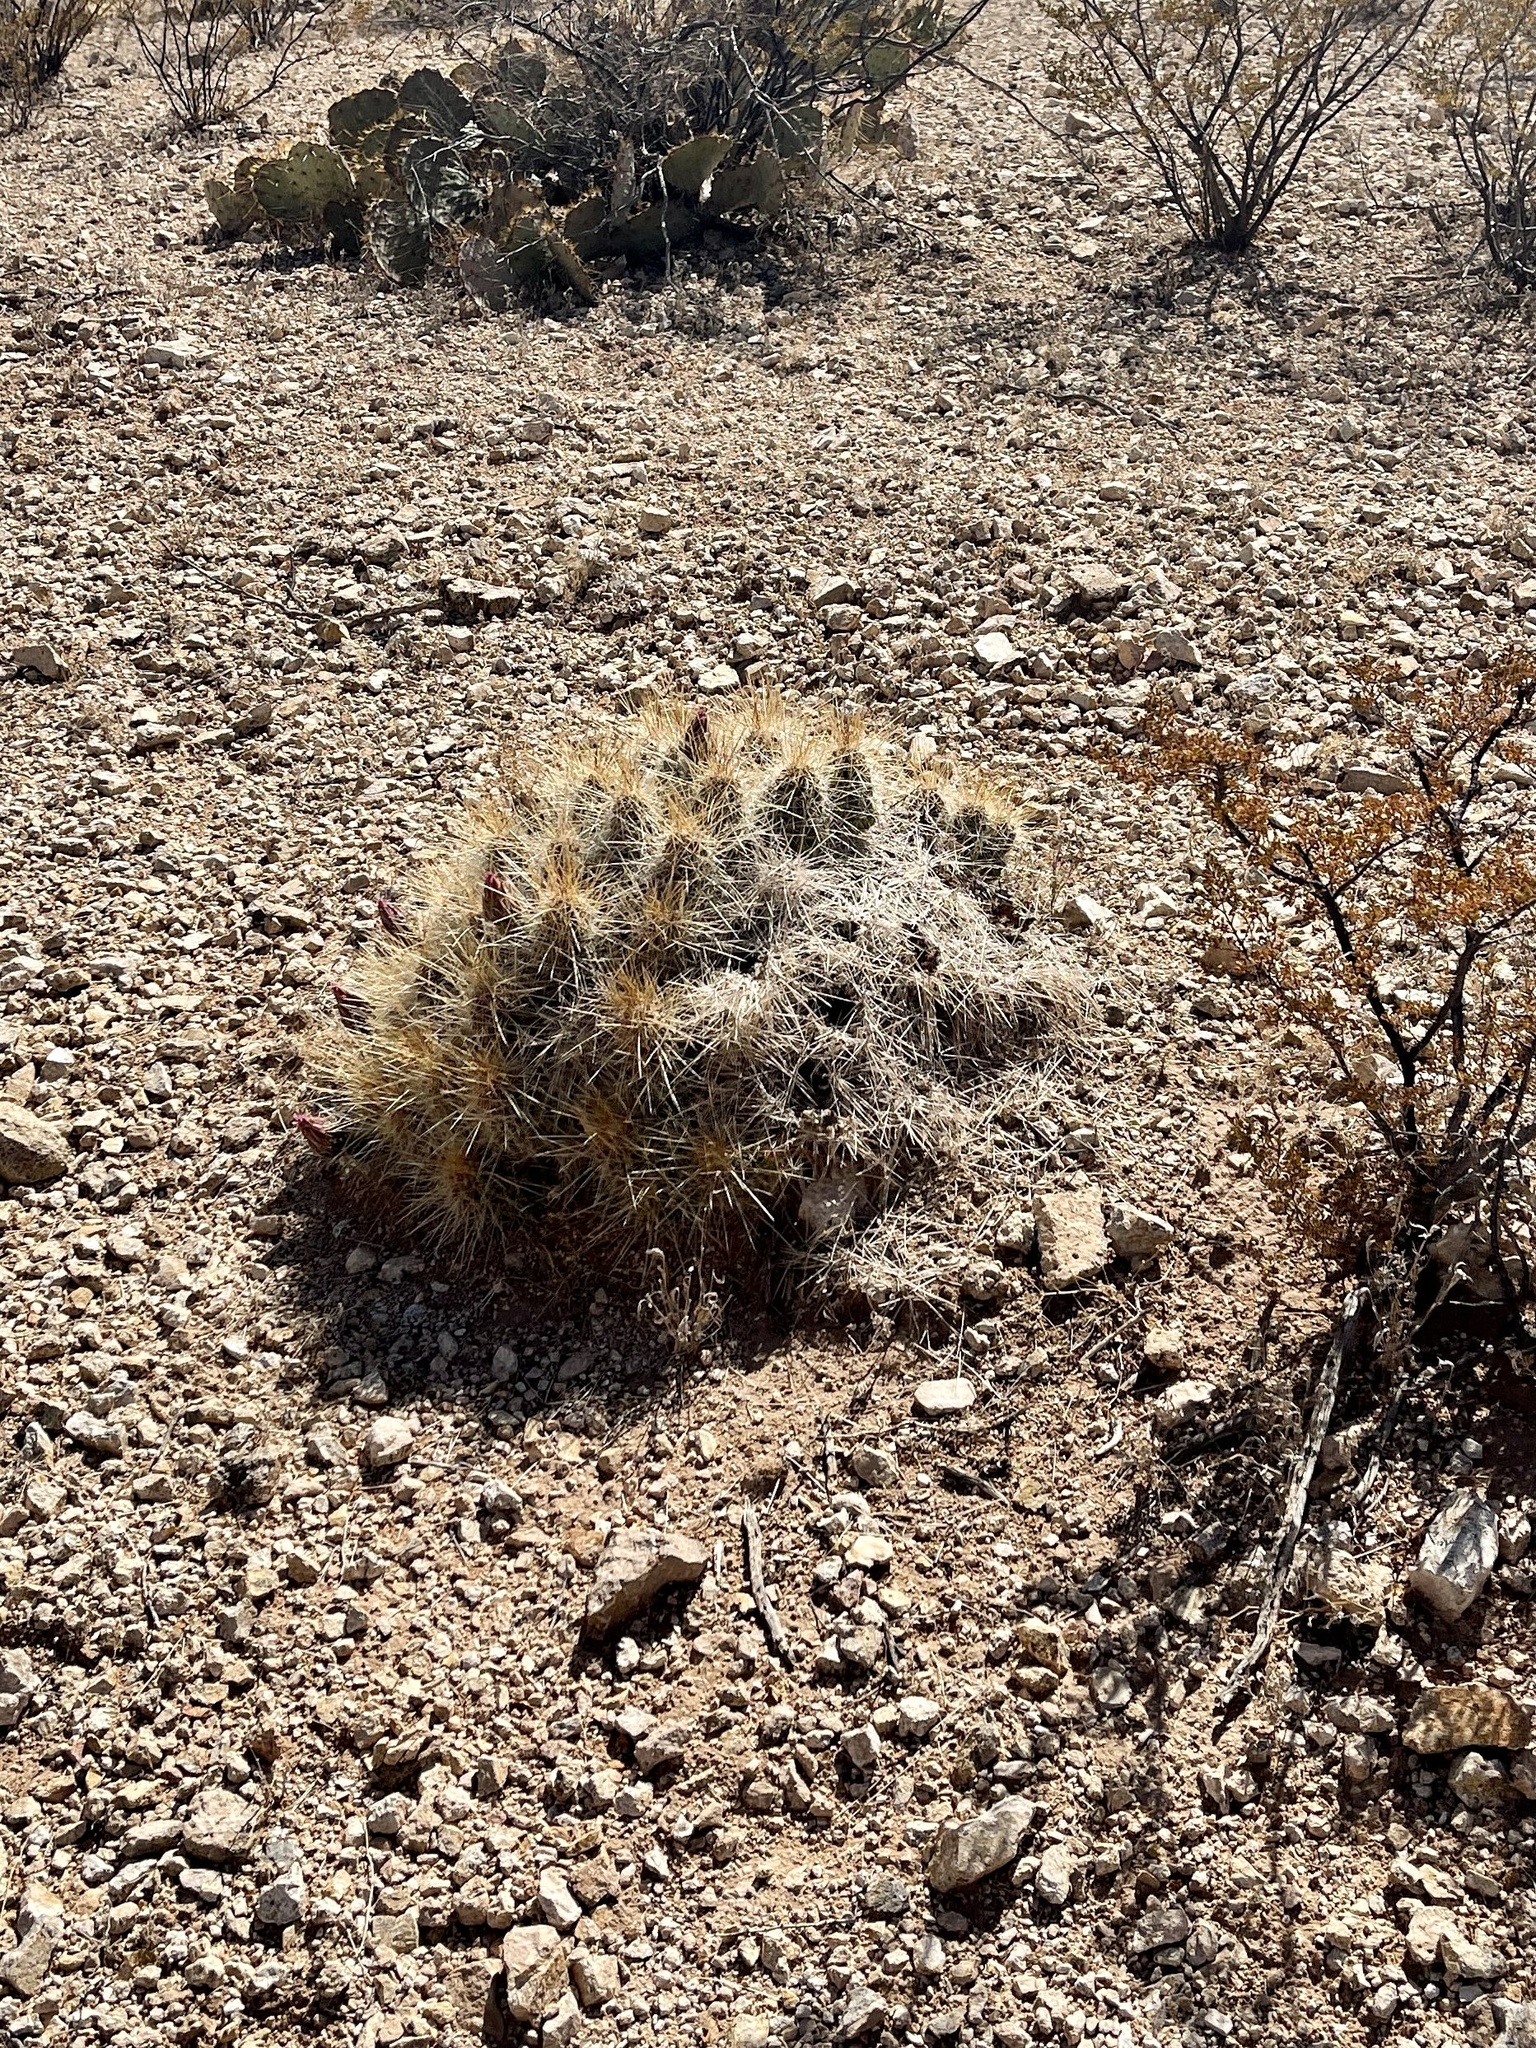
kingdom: Plantae
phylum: Tracheophyta
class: Magnoliopsida
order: Caryophyllales
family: Cactaceae
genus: Echinocereus
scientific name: Echinocereus stramineus
